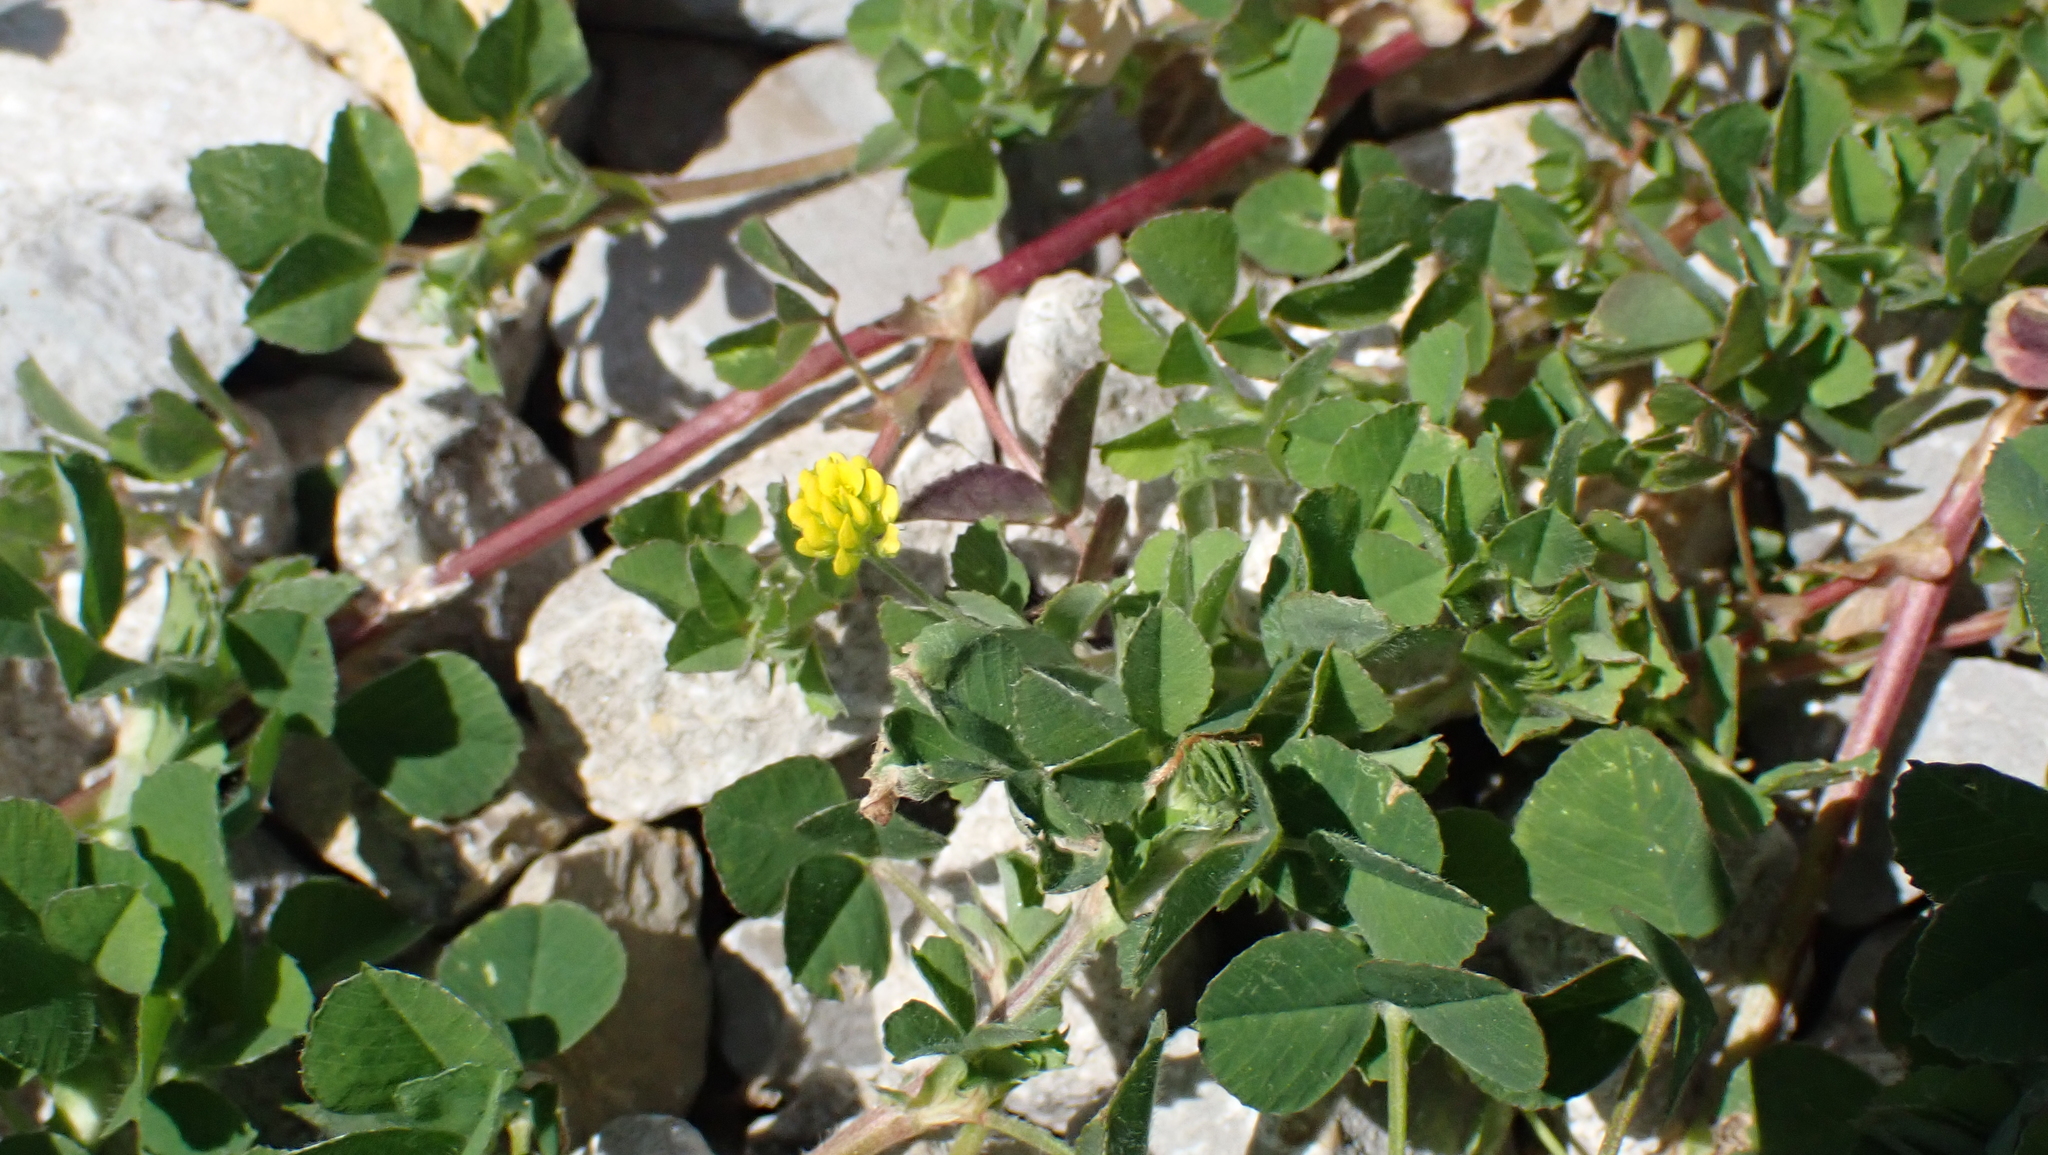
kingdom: Plantae
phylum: Tracheophyta
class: Magnoliopsida
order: Fabales
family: Fabaceae
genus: Medicago
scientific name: Medicago lupulina
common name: Black medick
